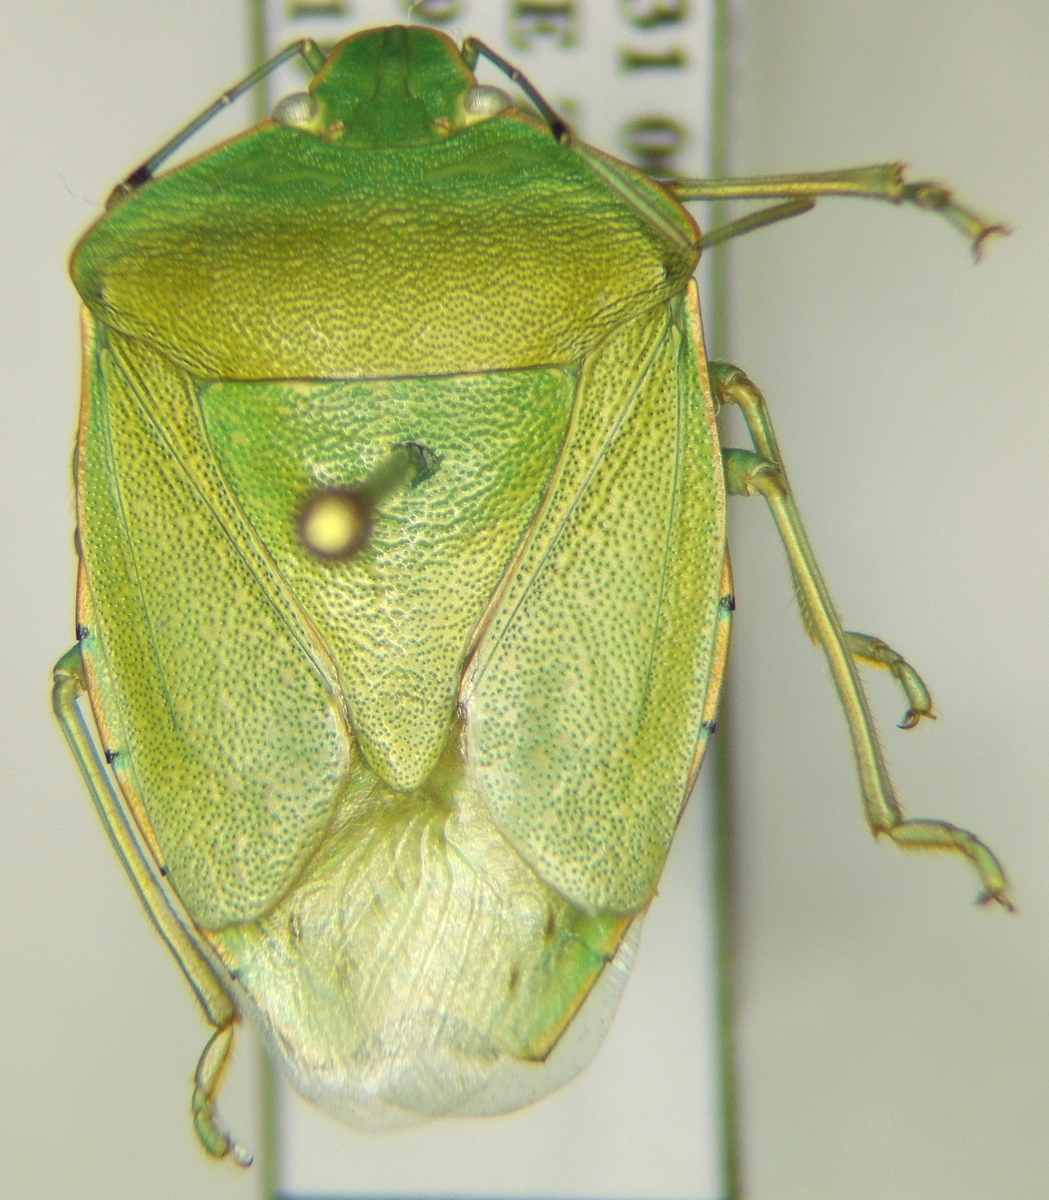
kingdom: Animalia
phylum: Arthropoda
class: Insecta
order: Hemiptera
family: Pentatomidae
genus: Acrosternum
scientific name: Acrosternum marginatum
